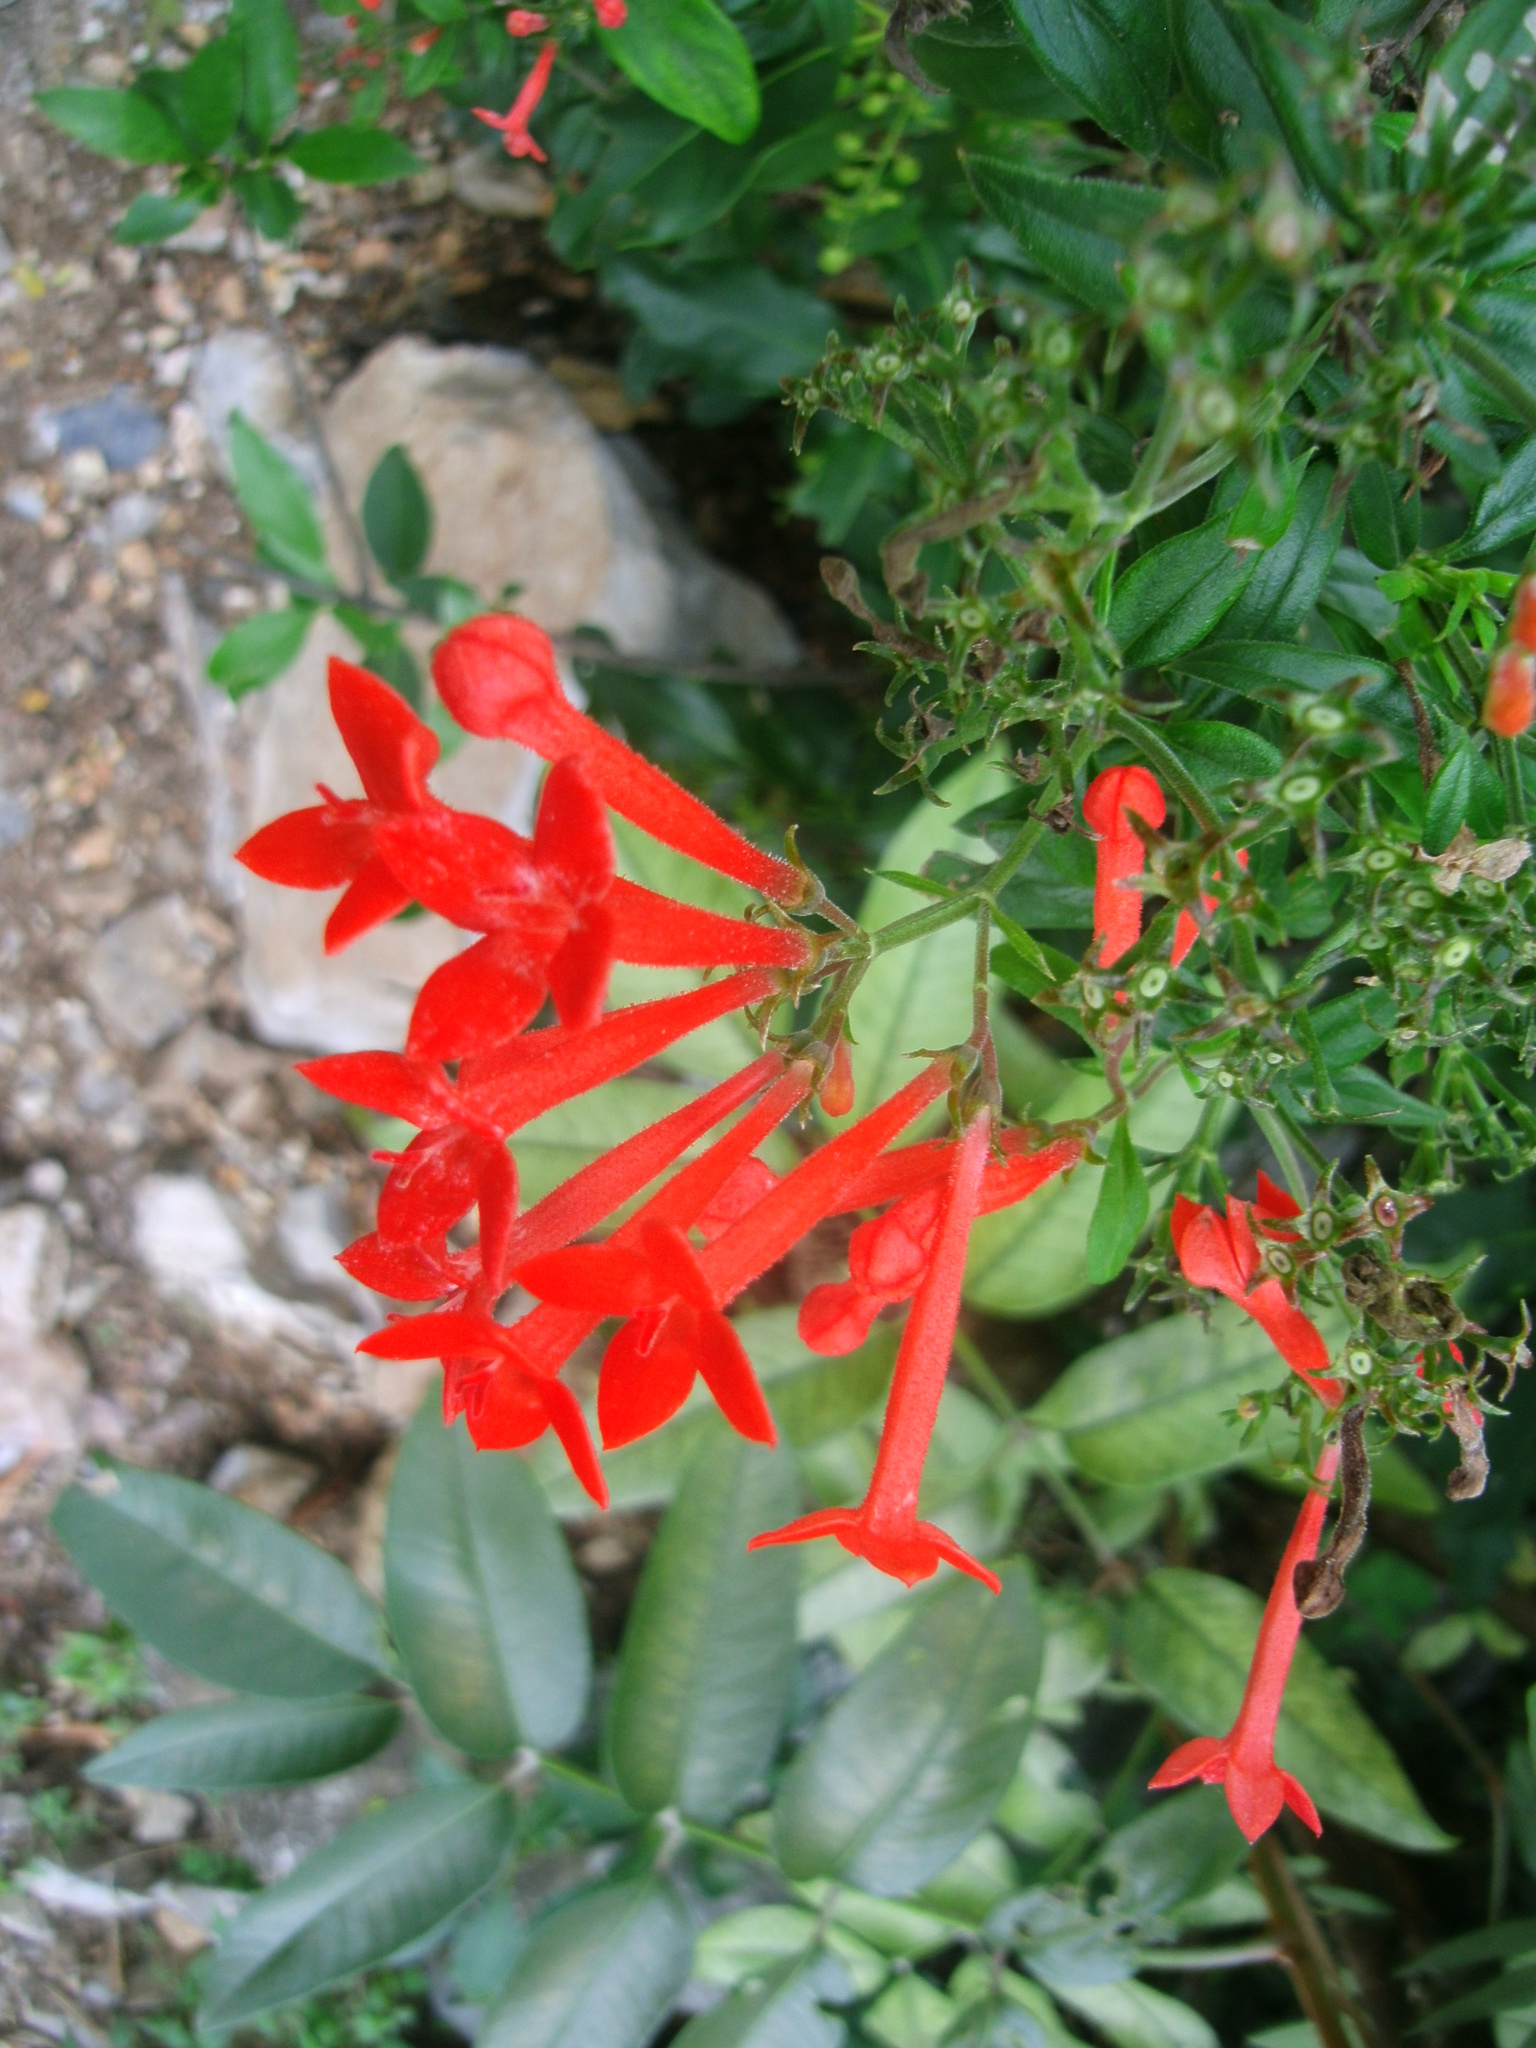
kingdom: Plantae
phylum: Tracheophyta
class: Magnoliopsida
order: Gentianales
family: Rubiaceae
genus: Bouvardia
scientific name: Bouvardia ternifolia
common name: Scarlet bouvardia
